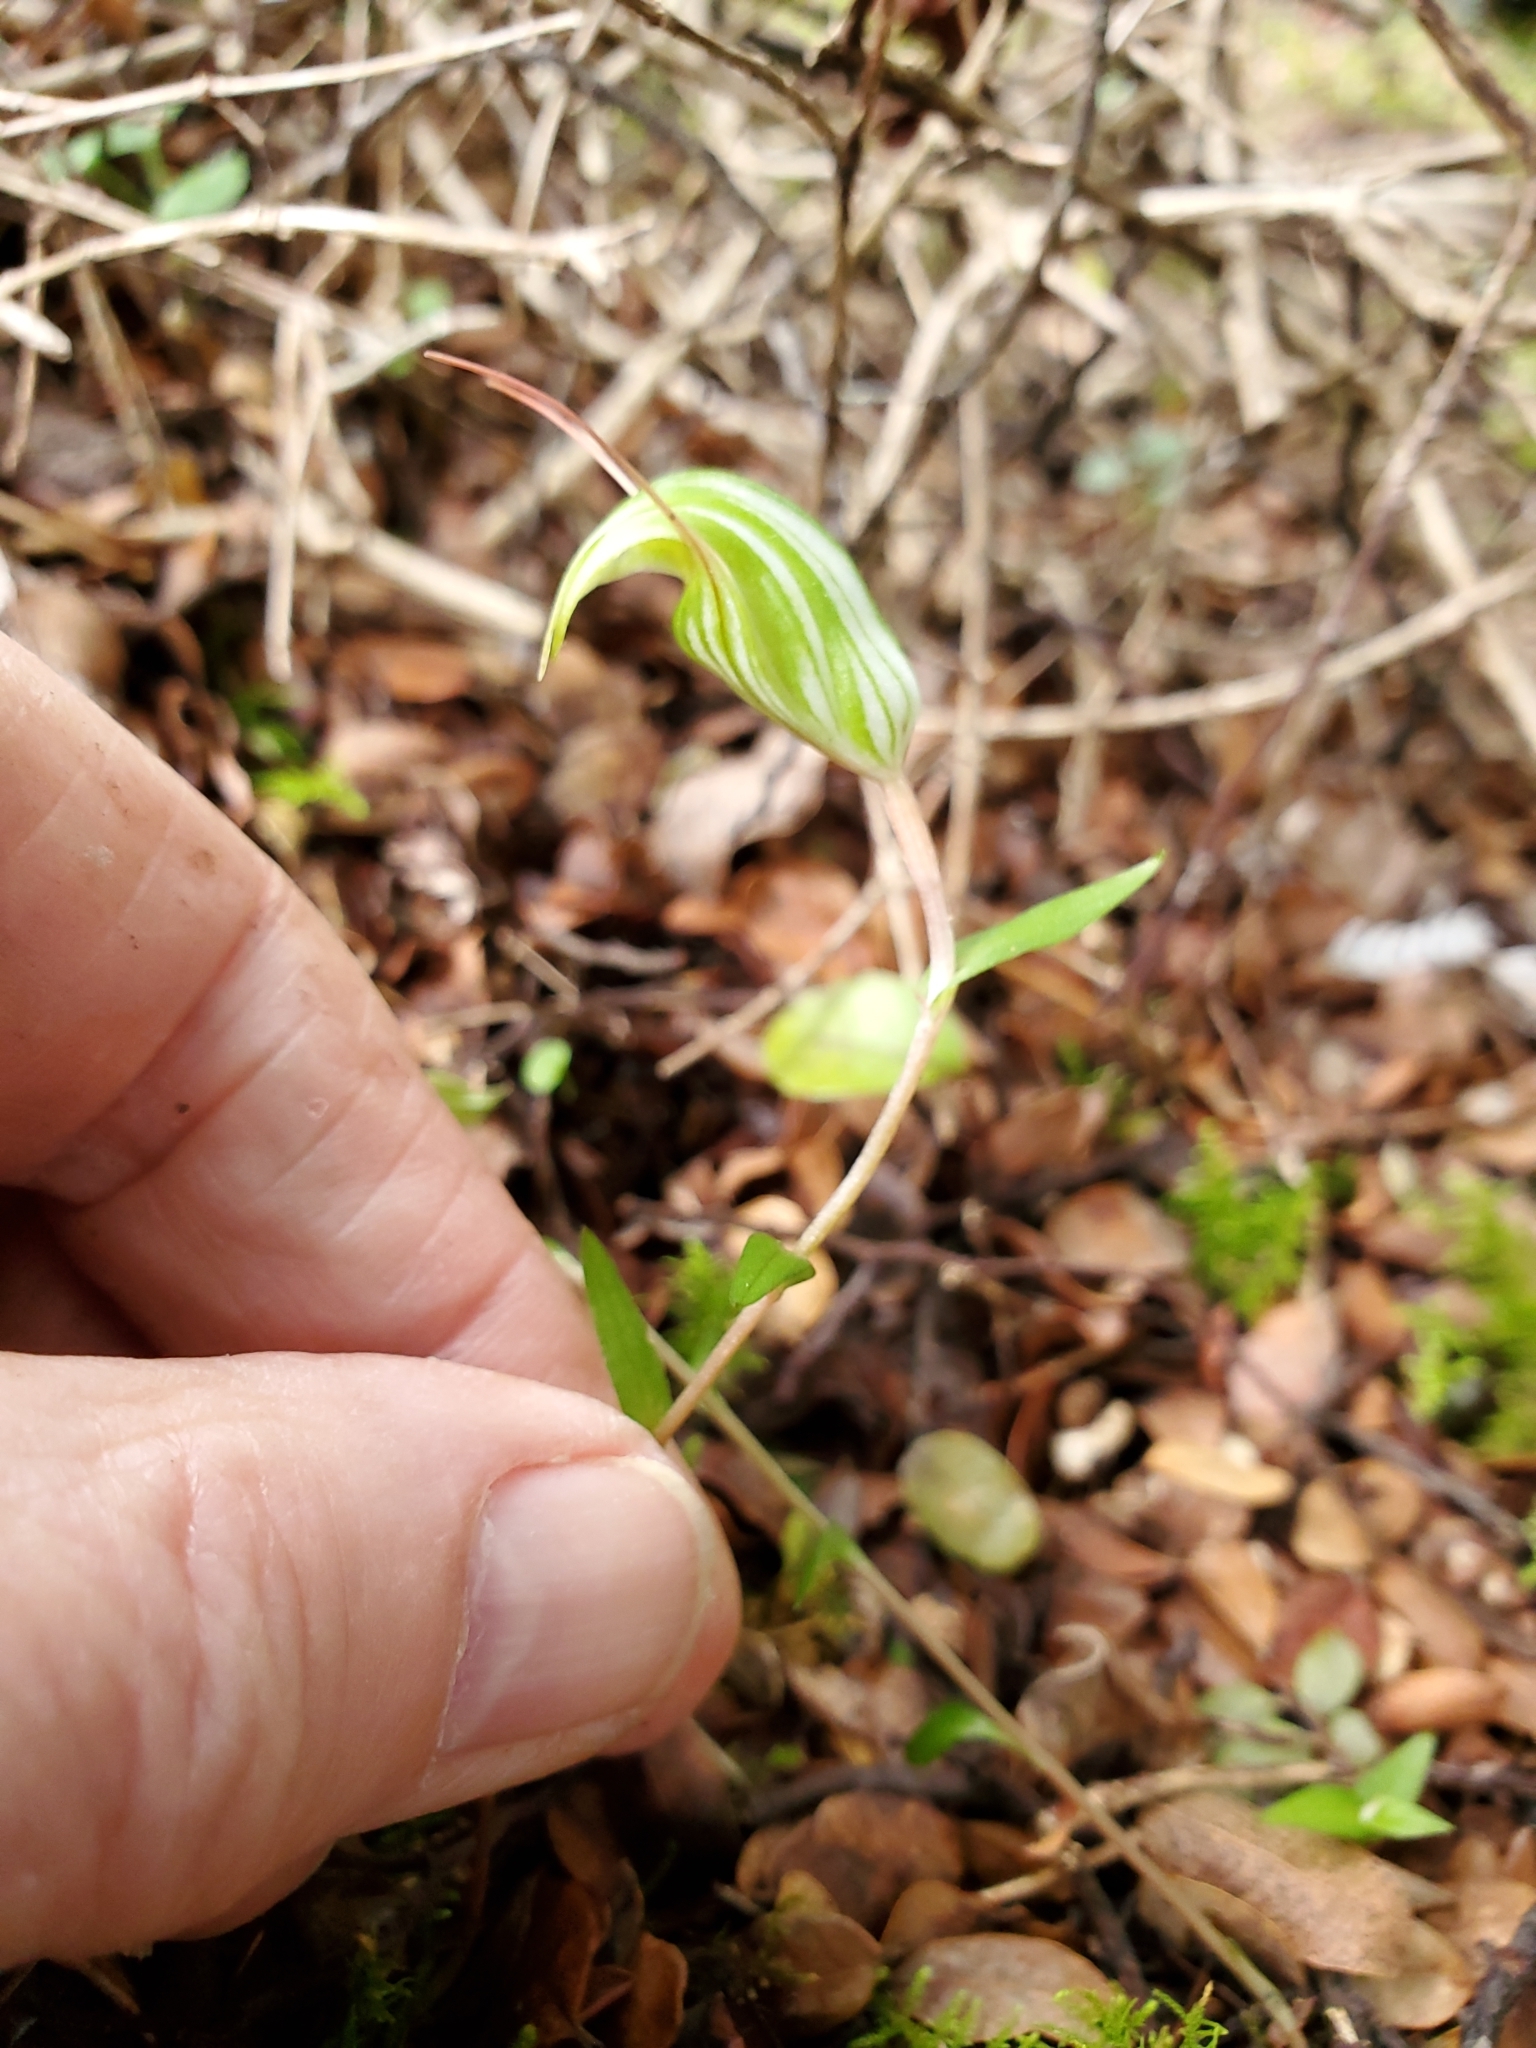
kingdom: Plantae
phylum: Tracheophyta
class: Liliopsida
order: Asparagales
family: Orchidaceae
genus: Pterostylis
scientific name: Pterostylis alobula
